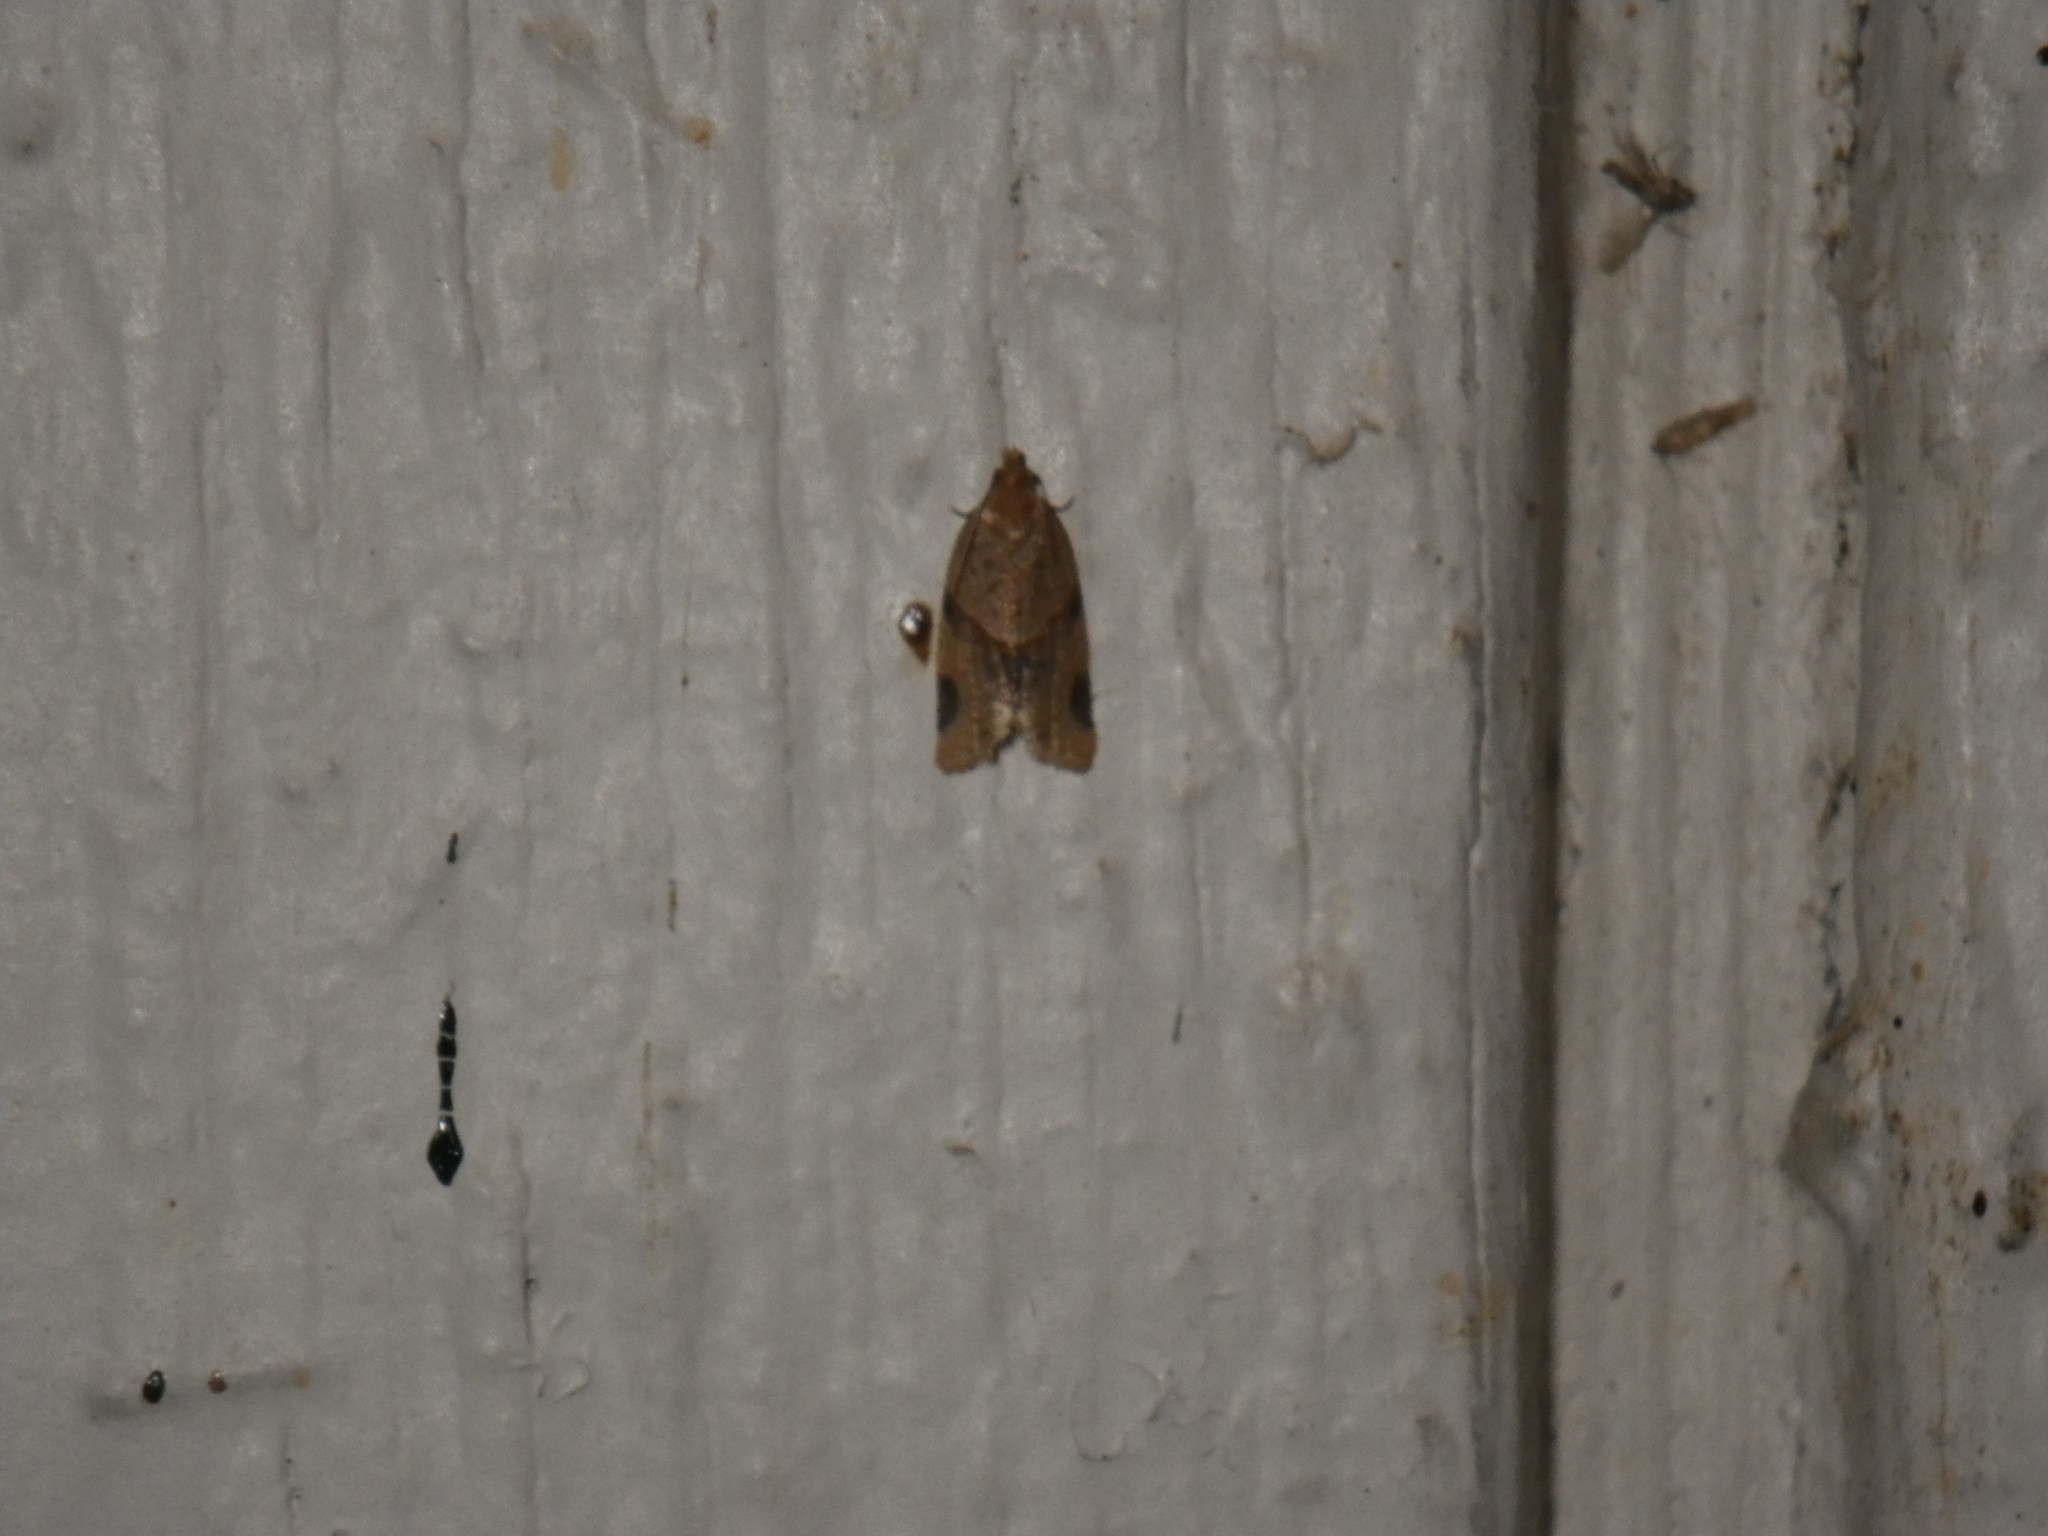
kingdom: Animalia
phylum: Arthropoda
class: Insecta
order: Lepidoptera
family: Tortricidae
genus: Clepsis
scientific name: Clepsis peritana
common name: Garden tortrix
